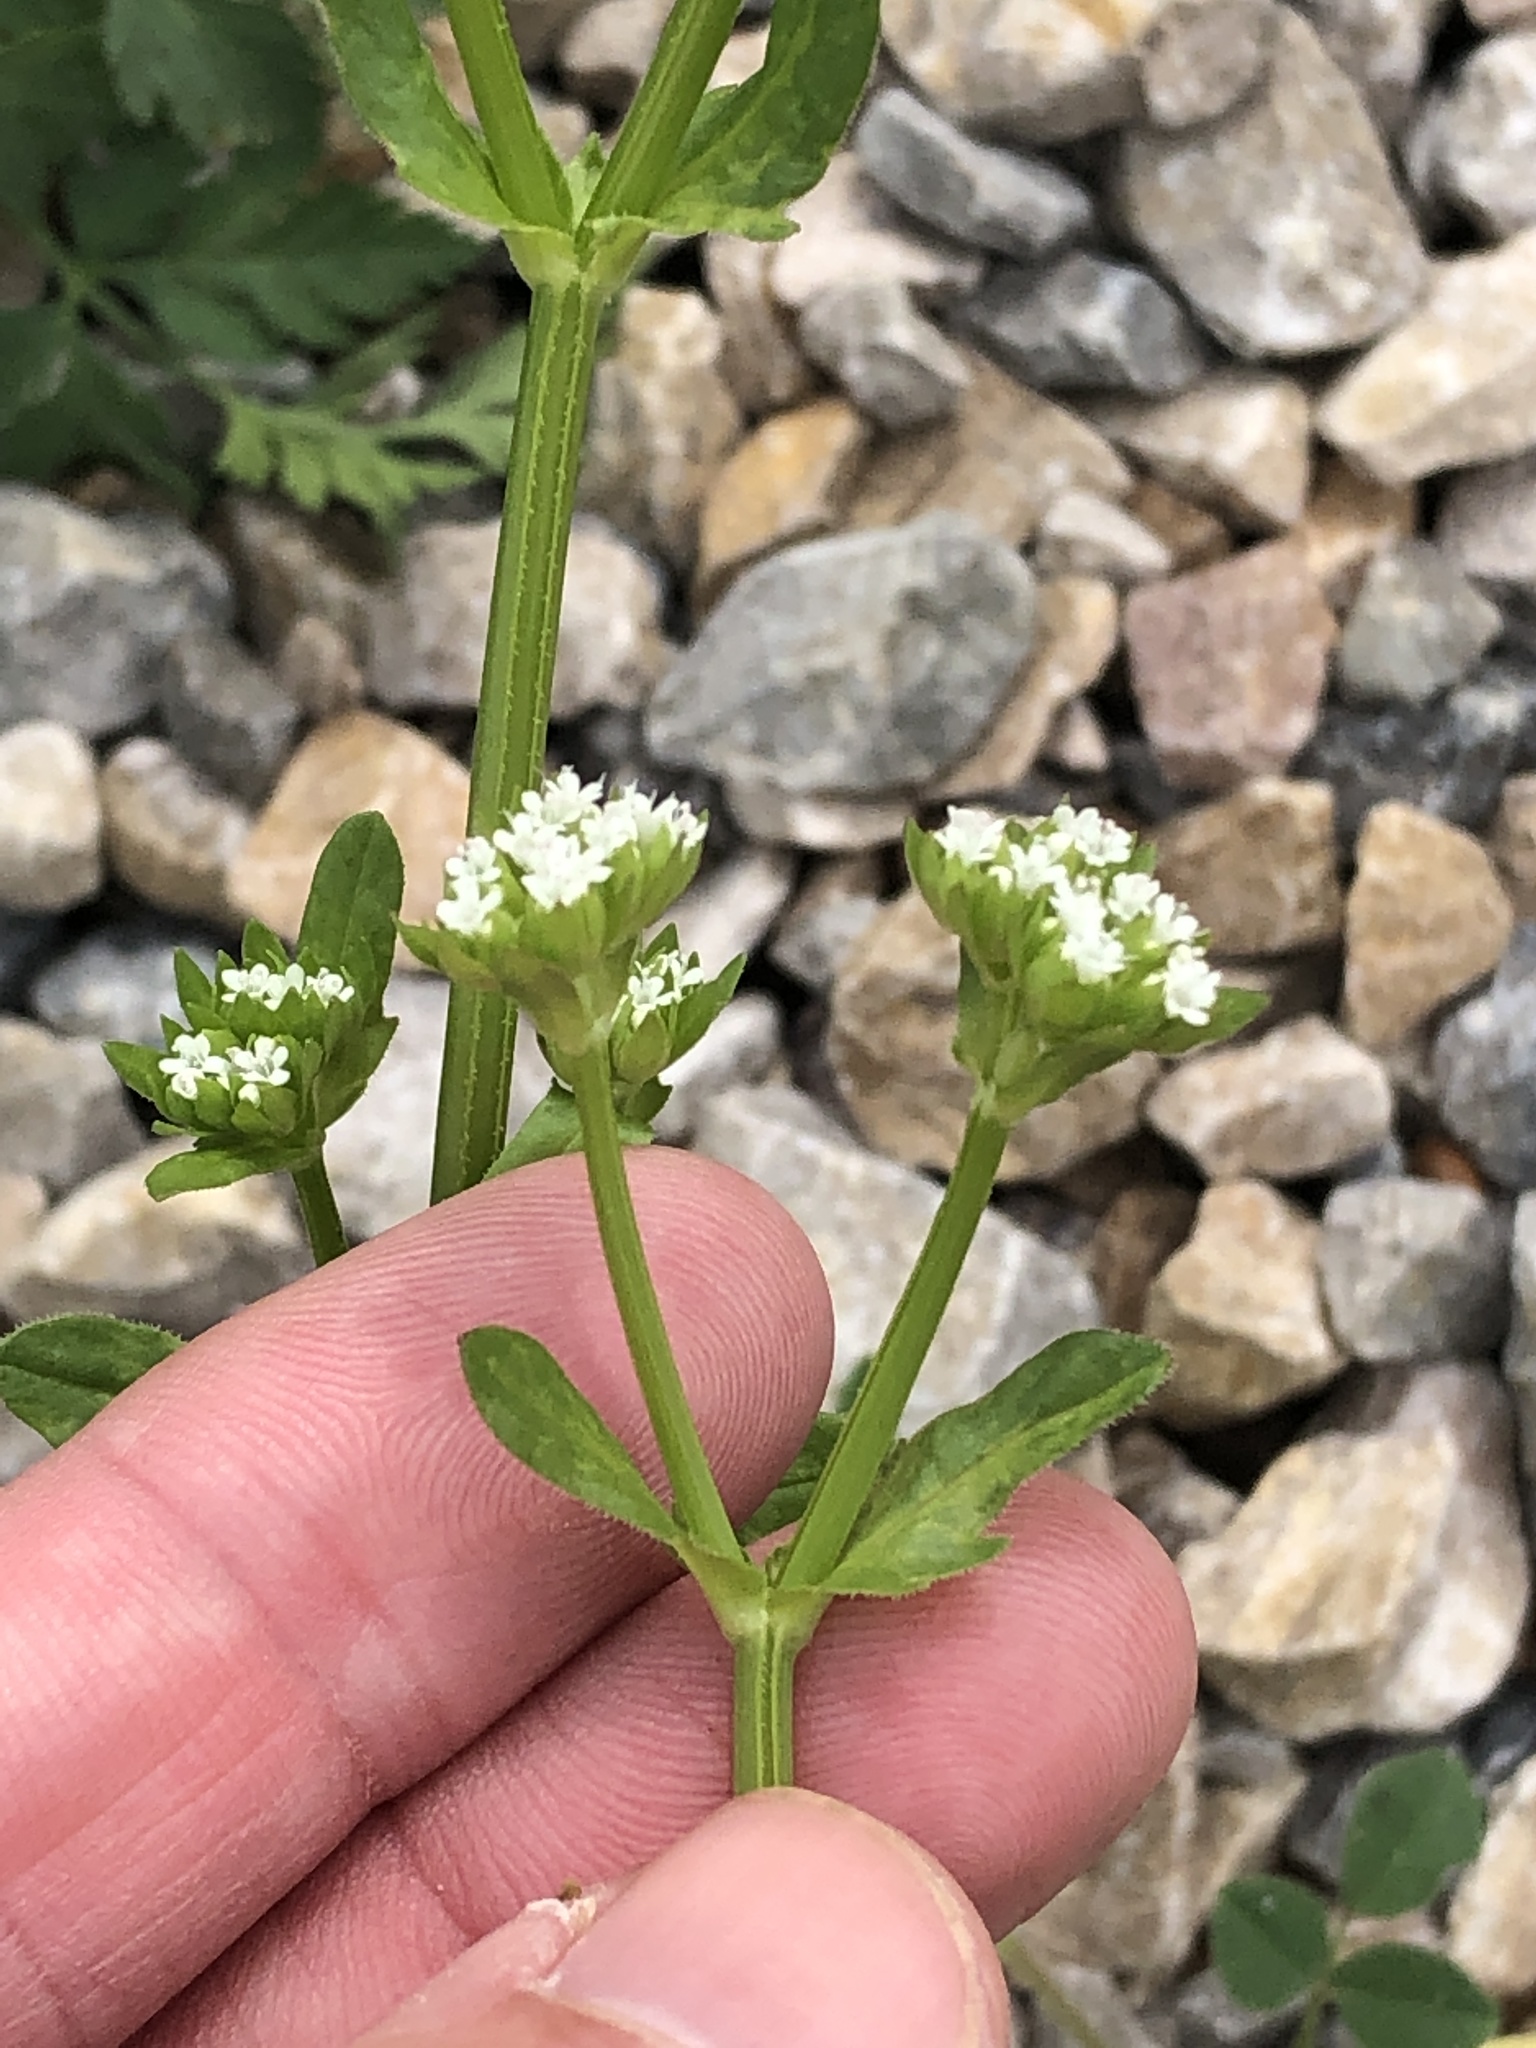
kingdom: Plantae
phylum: Tracheophyta
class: Magnoliopsida
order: Dipsacales
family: Caprifoliaceae
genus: Valerianella
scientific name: Valerianella radiata
